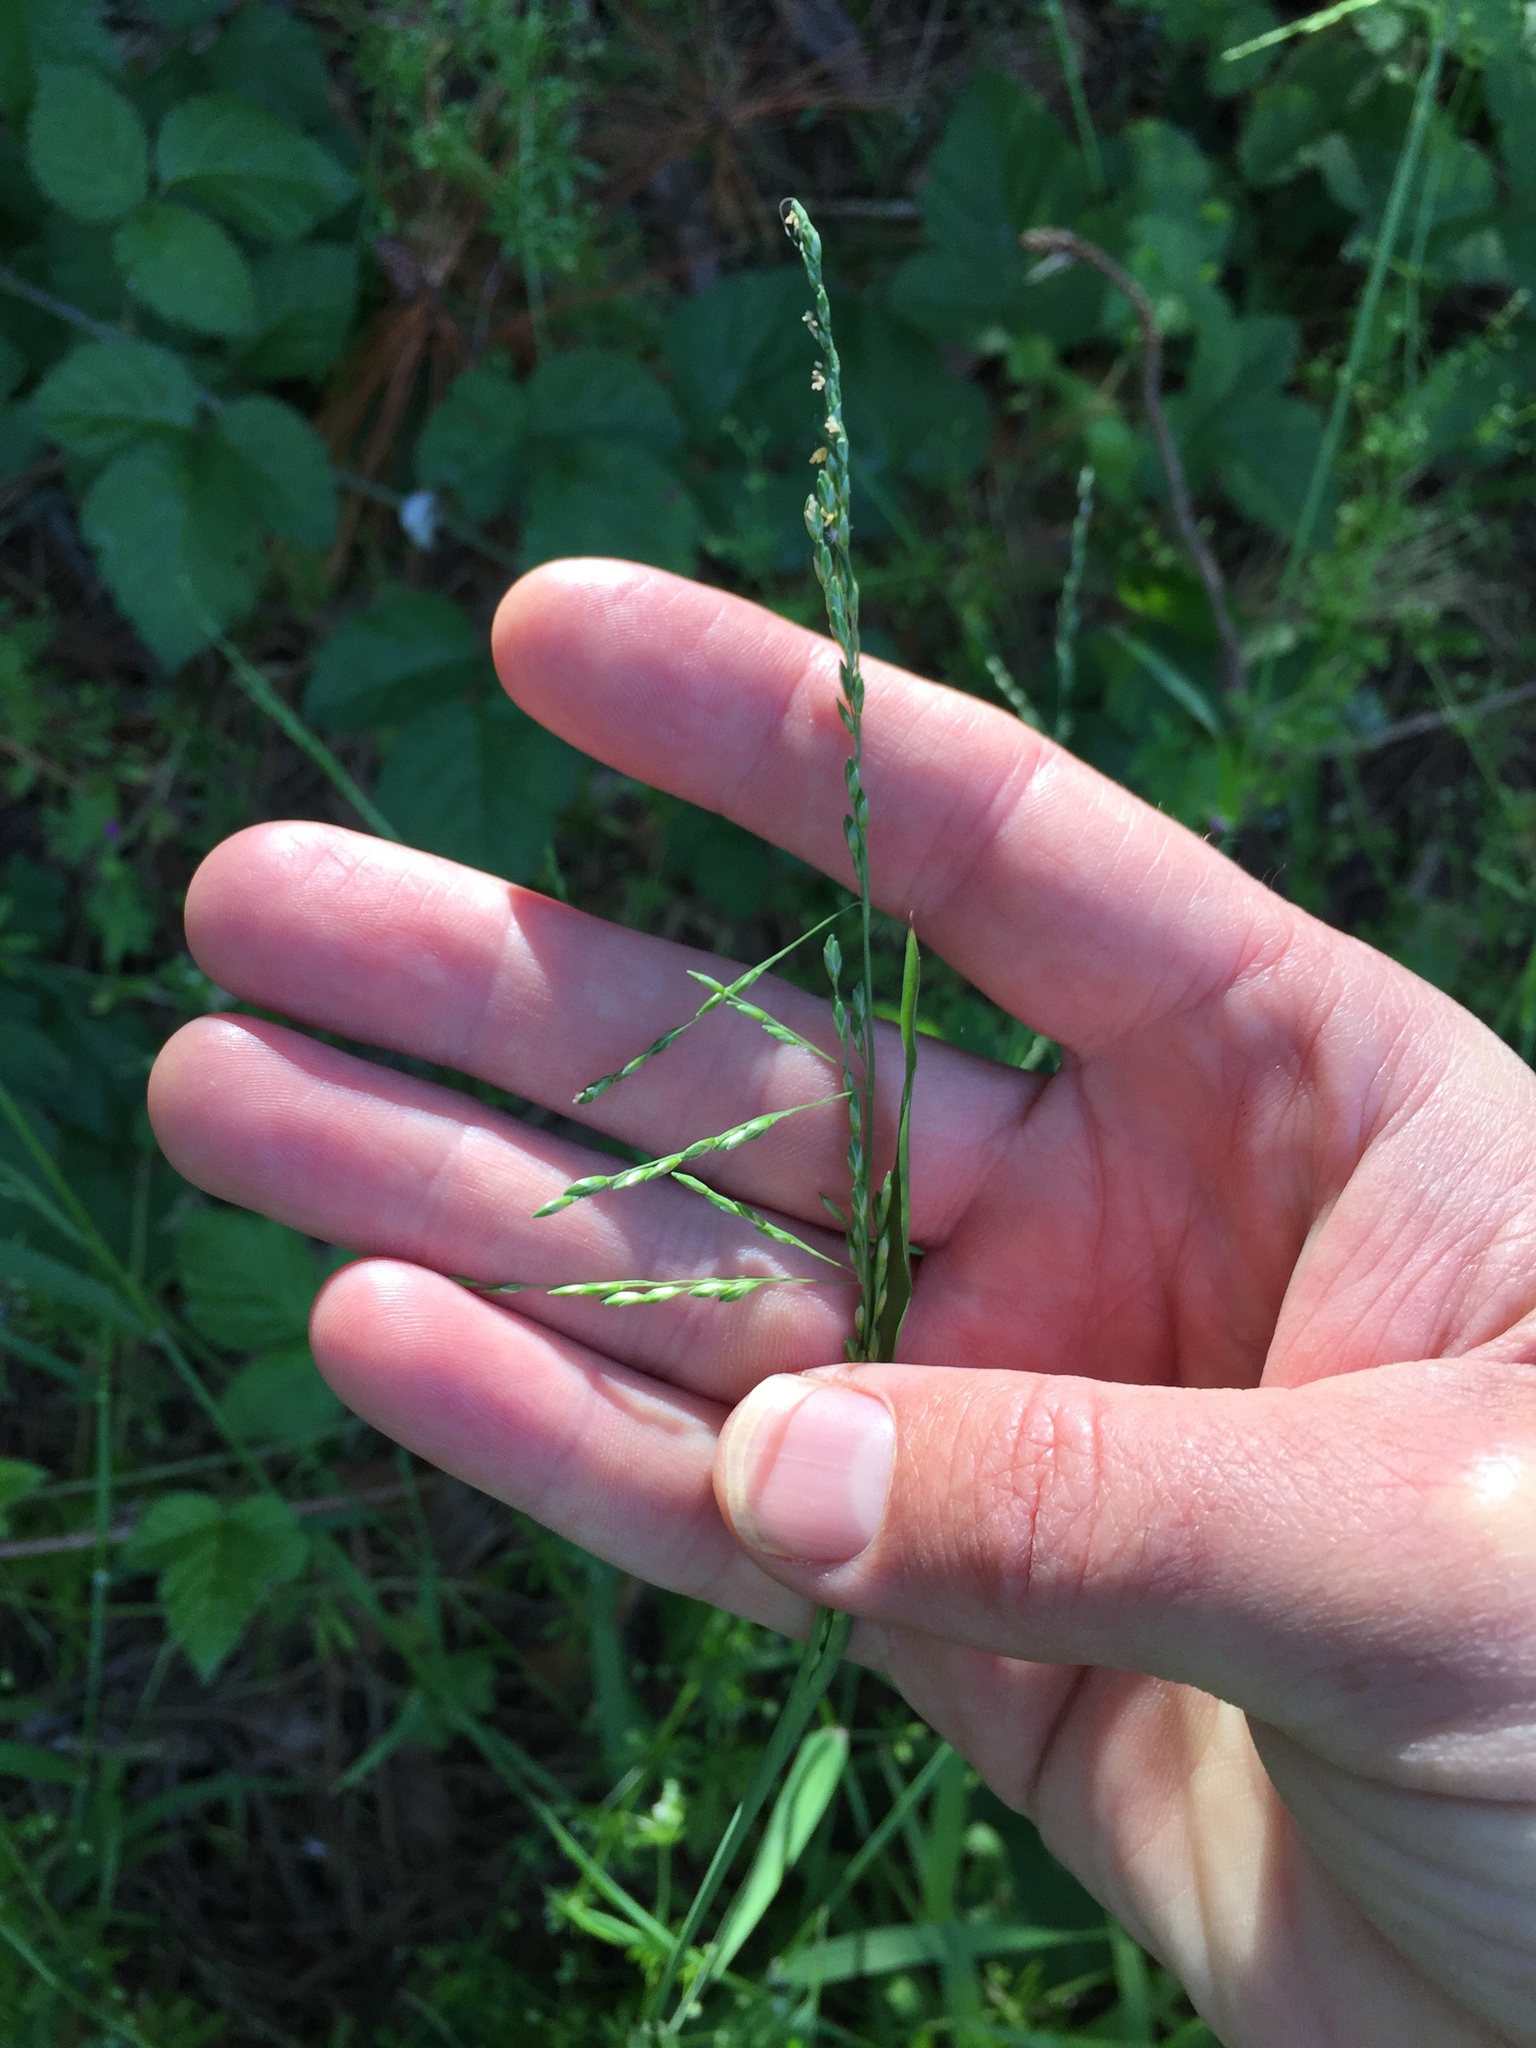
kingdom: Plantae
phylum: Tracheophyta
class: Liliopsida
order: Poales
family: Poaceae
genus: Ehrharta
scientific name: Ehrharta erecta
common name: Panic veldtgrass
